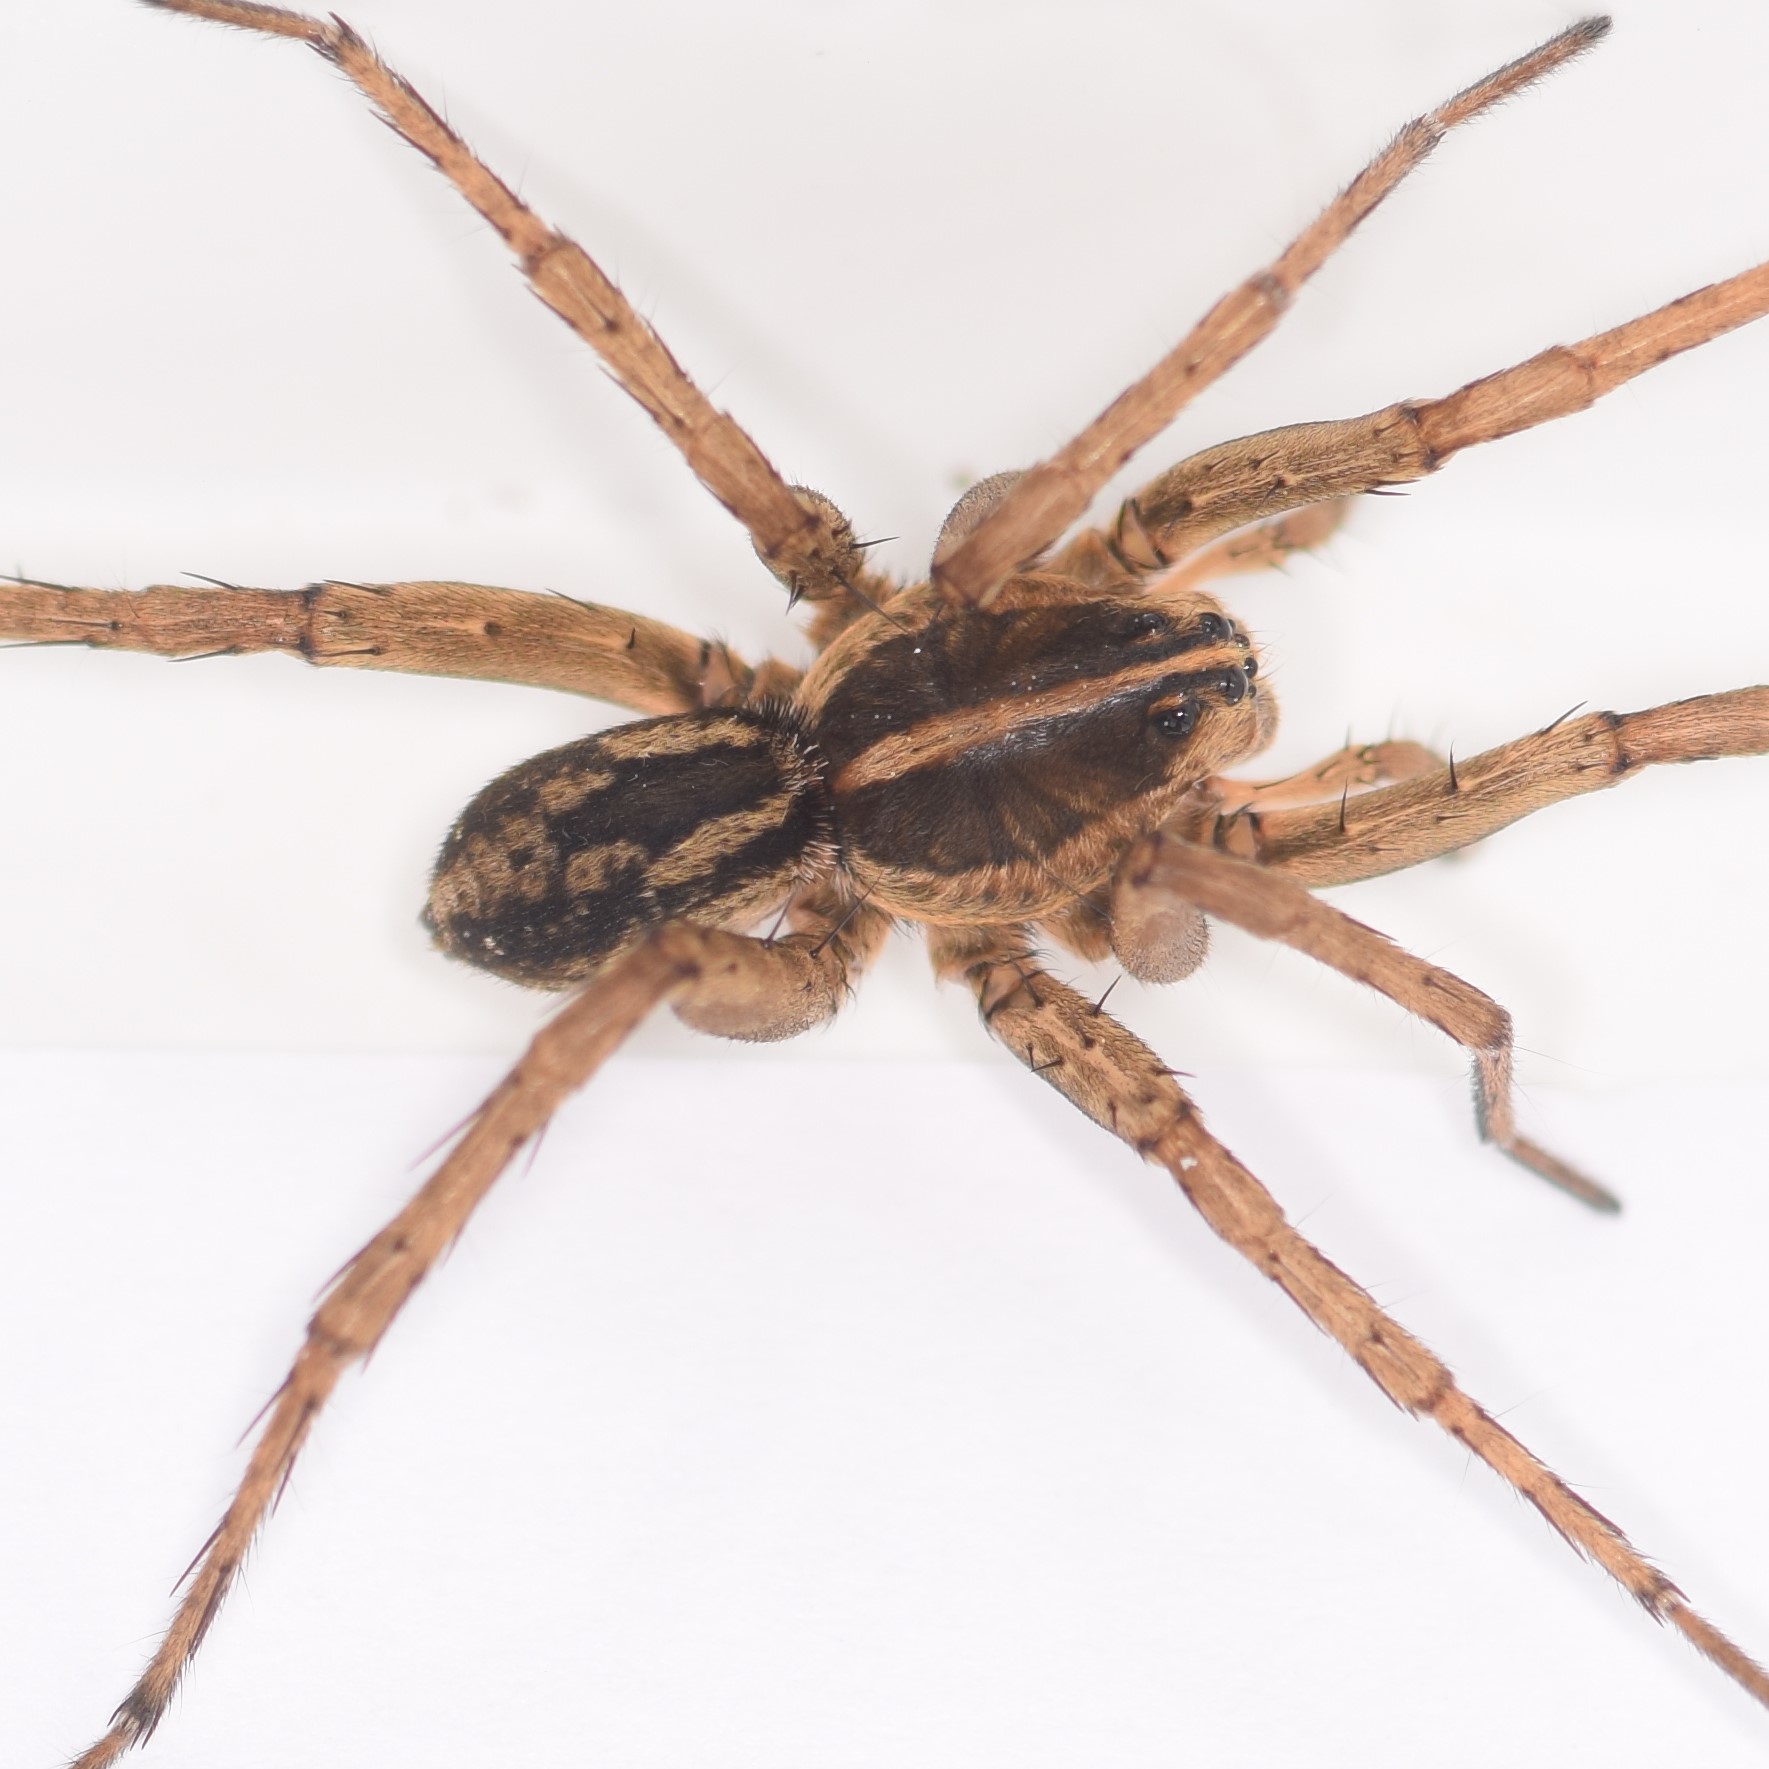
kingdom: Animalia
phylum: Arthropoda
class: Arachnida
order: Araneae
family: Lycosidae
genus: Tigrosa
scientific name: Tigrosa helluo
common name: Wetland giant wolf spider
